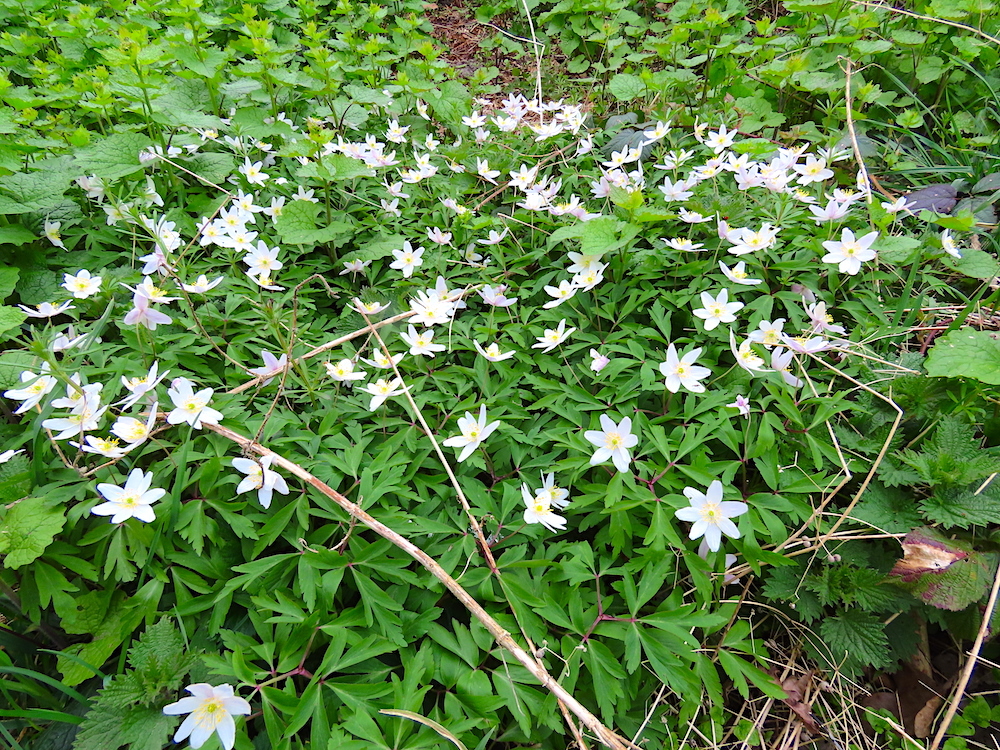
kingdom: Plantae
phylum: Tracheophyta
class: Magnoliopsida
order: Ranunculales
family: Ranunculaceae
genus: Anemone
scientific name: Anemone nemorosa
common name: Wood anemone
